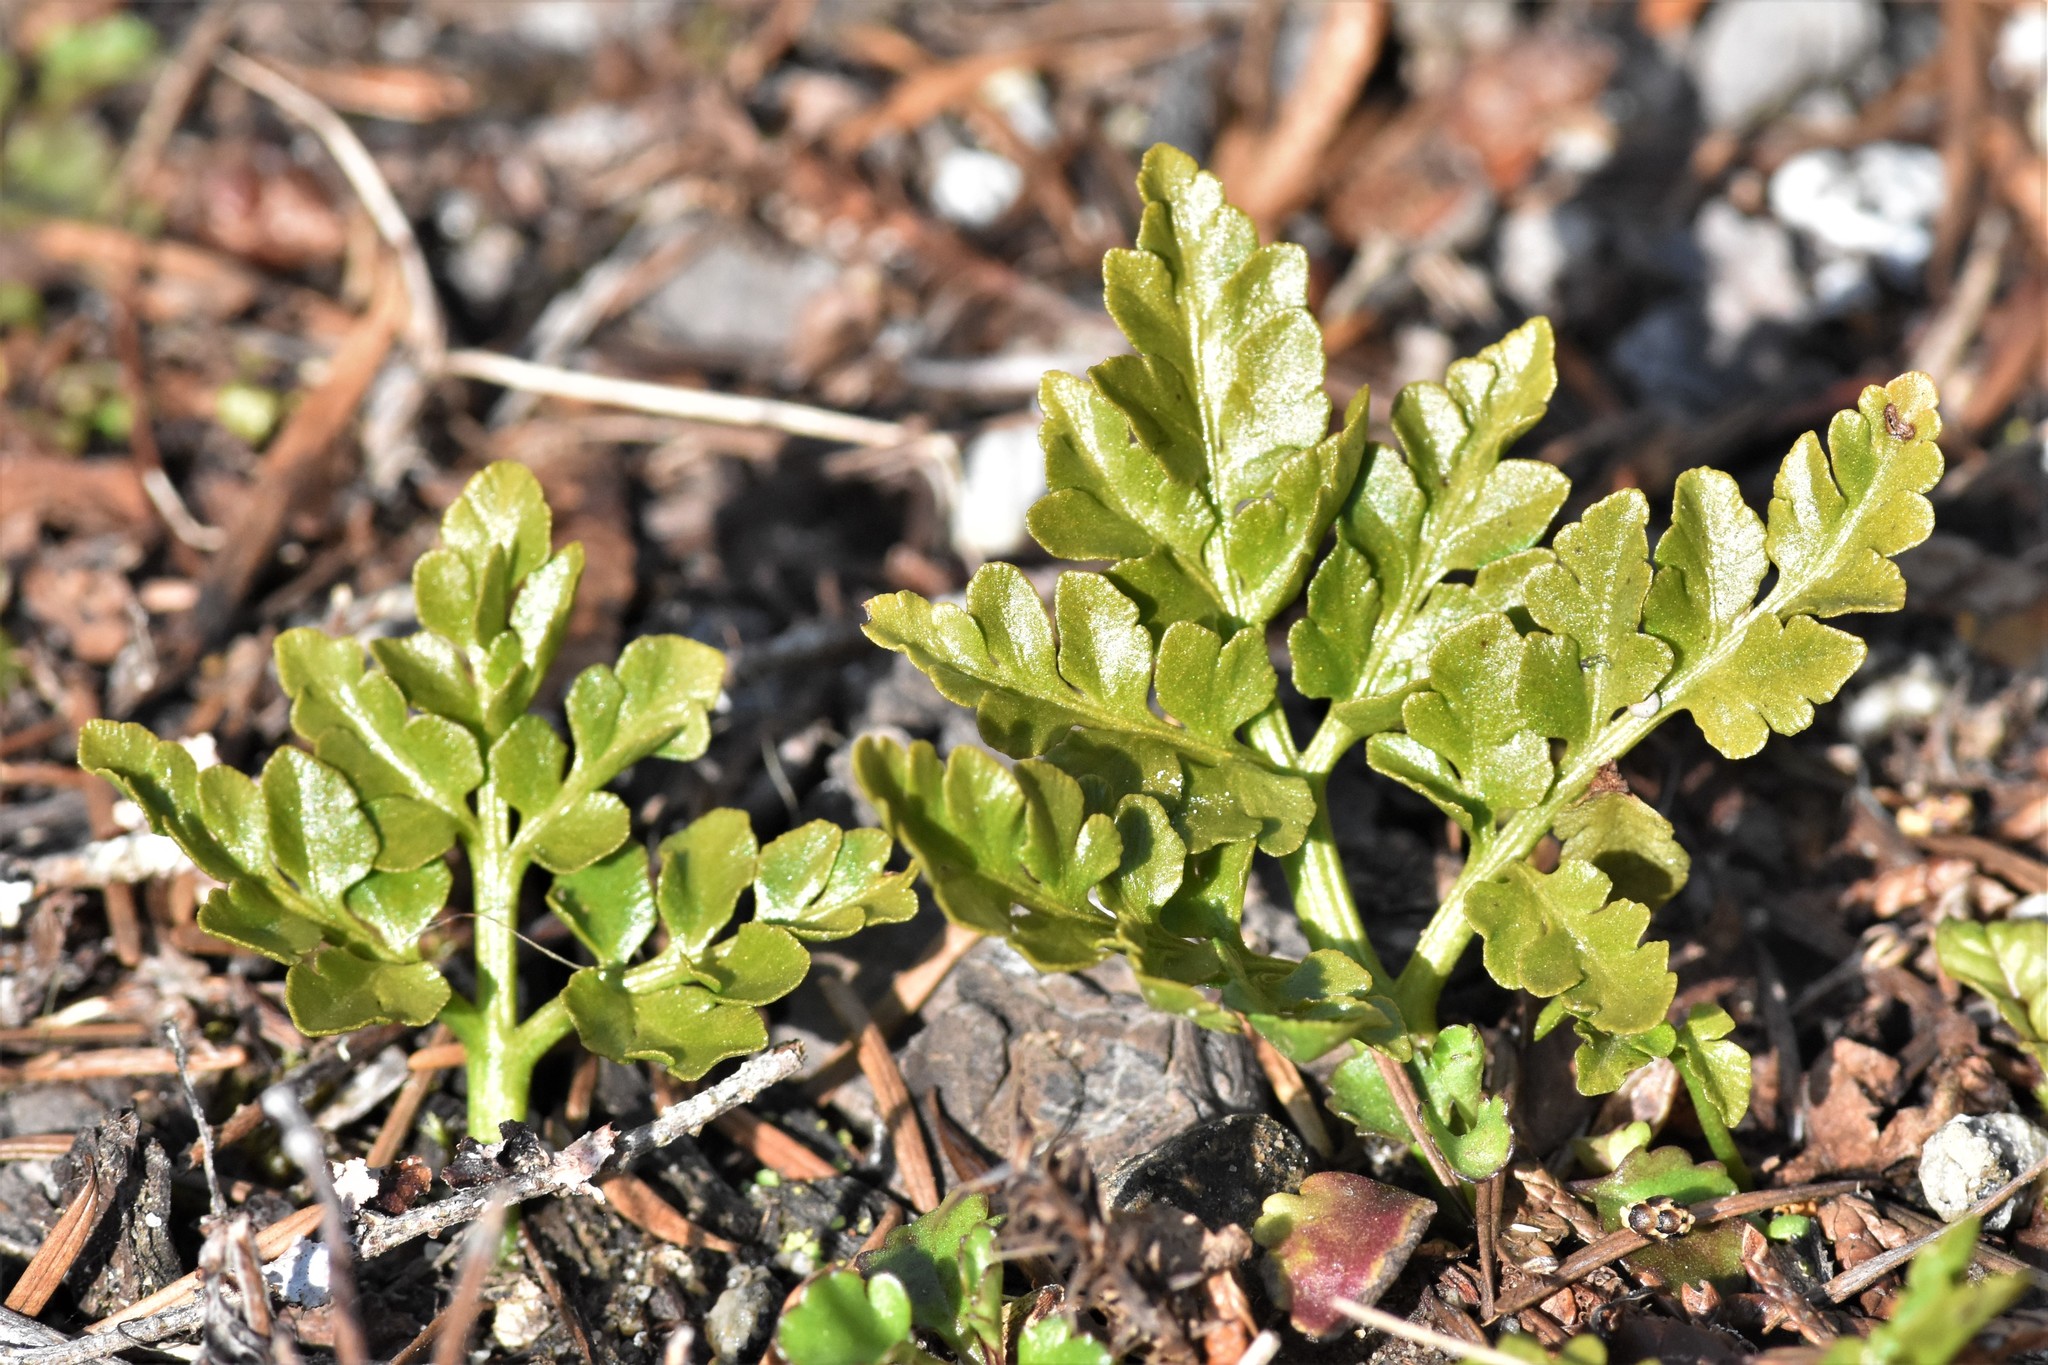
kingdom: Plantae
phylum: Tracheophyta
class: Polypodiopsida
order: Ophioglossales
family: Ophioglossaceae
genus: Sceptridium
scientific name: Sceptridium multifidum
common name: Leathery grape fern
